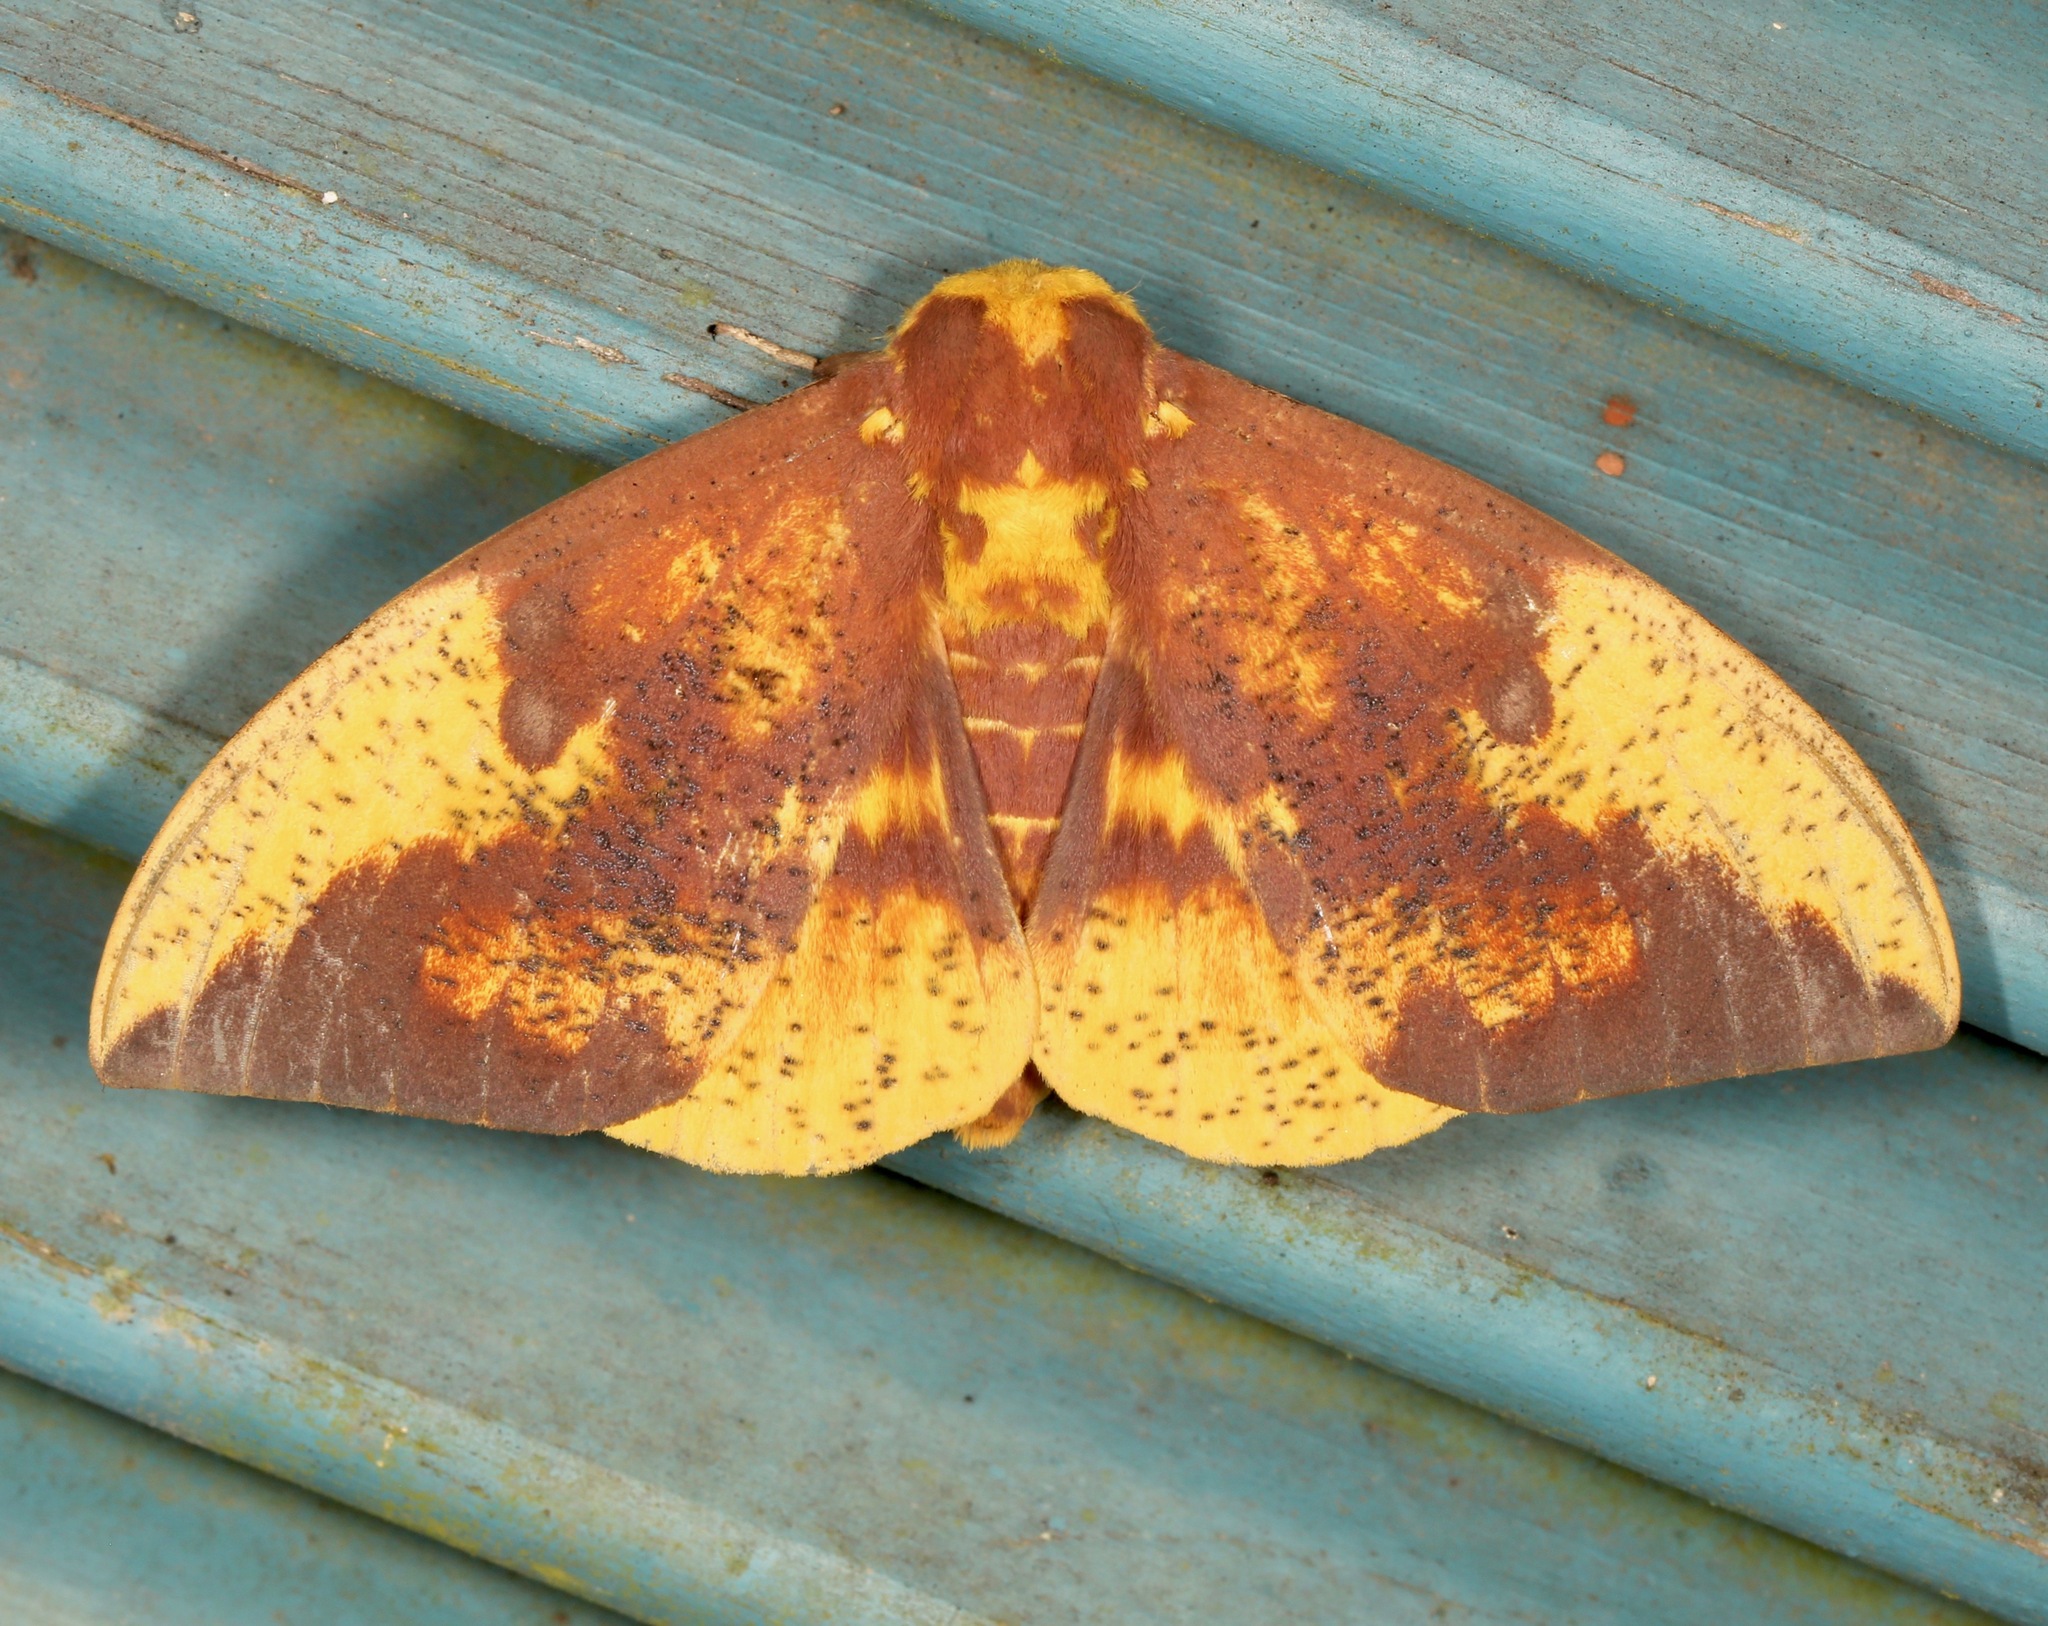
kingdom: Animalia
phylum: Arthropoda
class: Insecta
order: Lepidoptera
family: Saturniidae
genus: Eacles
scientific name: Eacles imperialis
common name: Imperial moth
